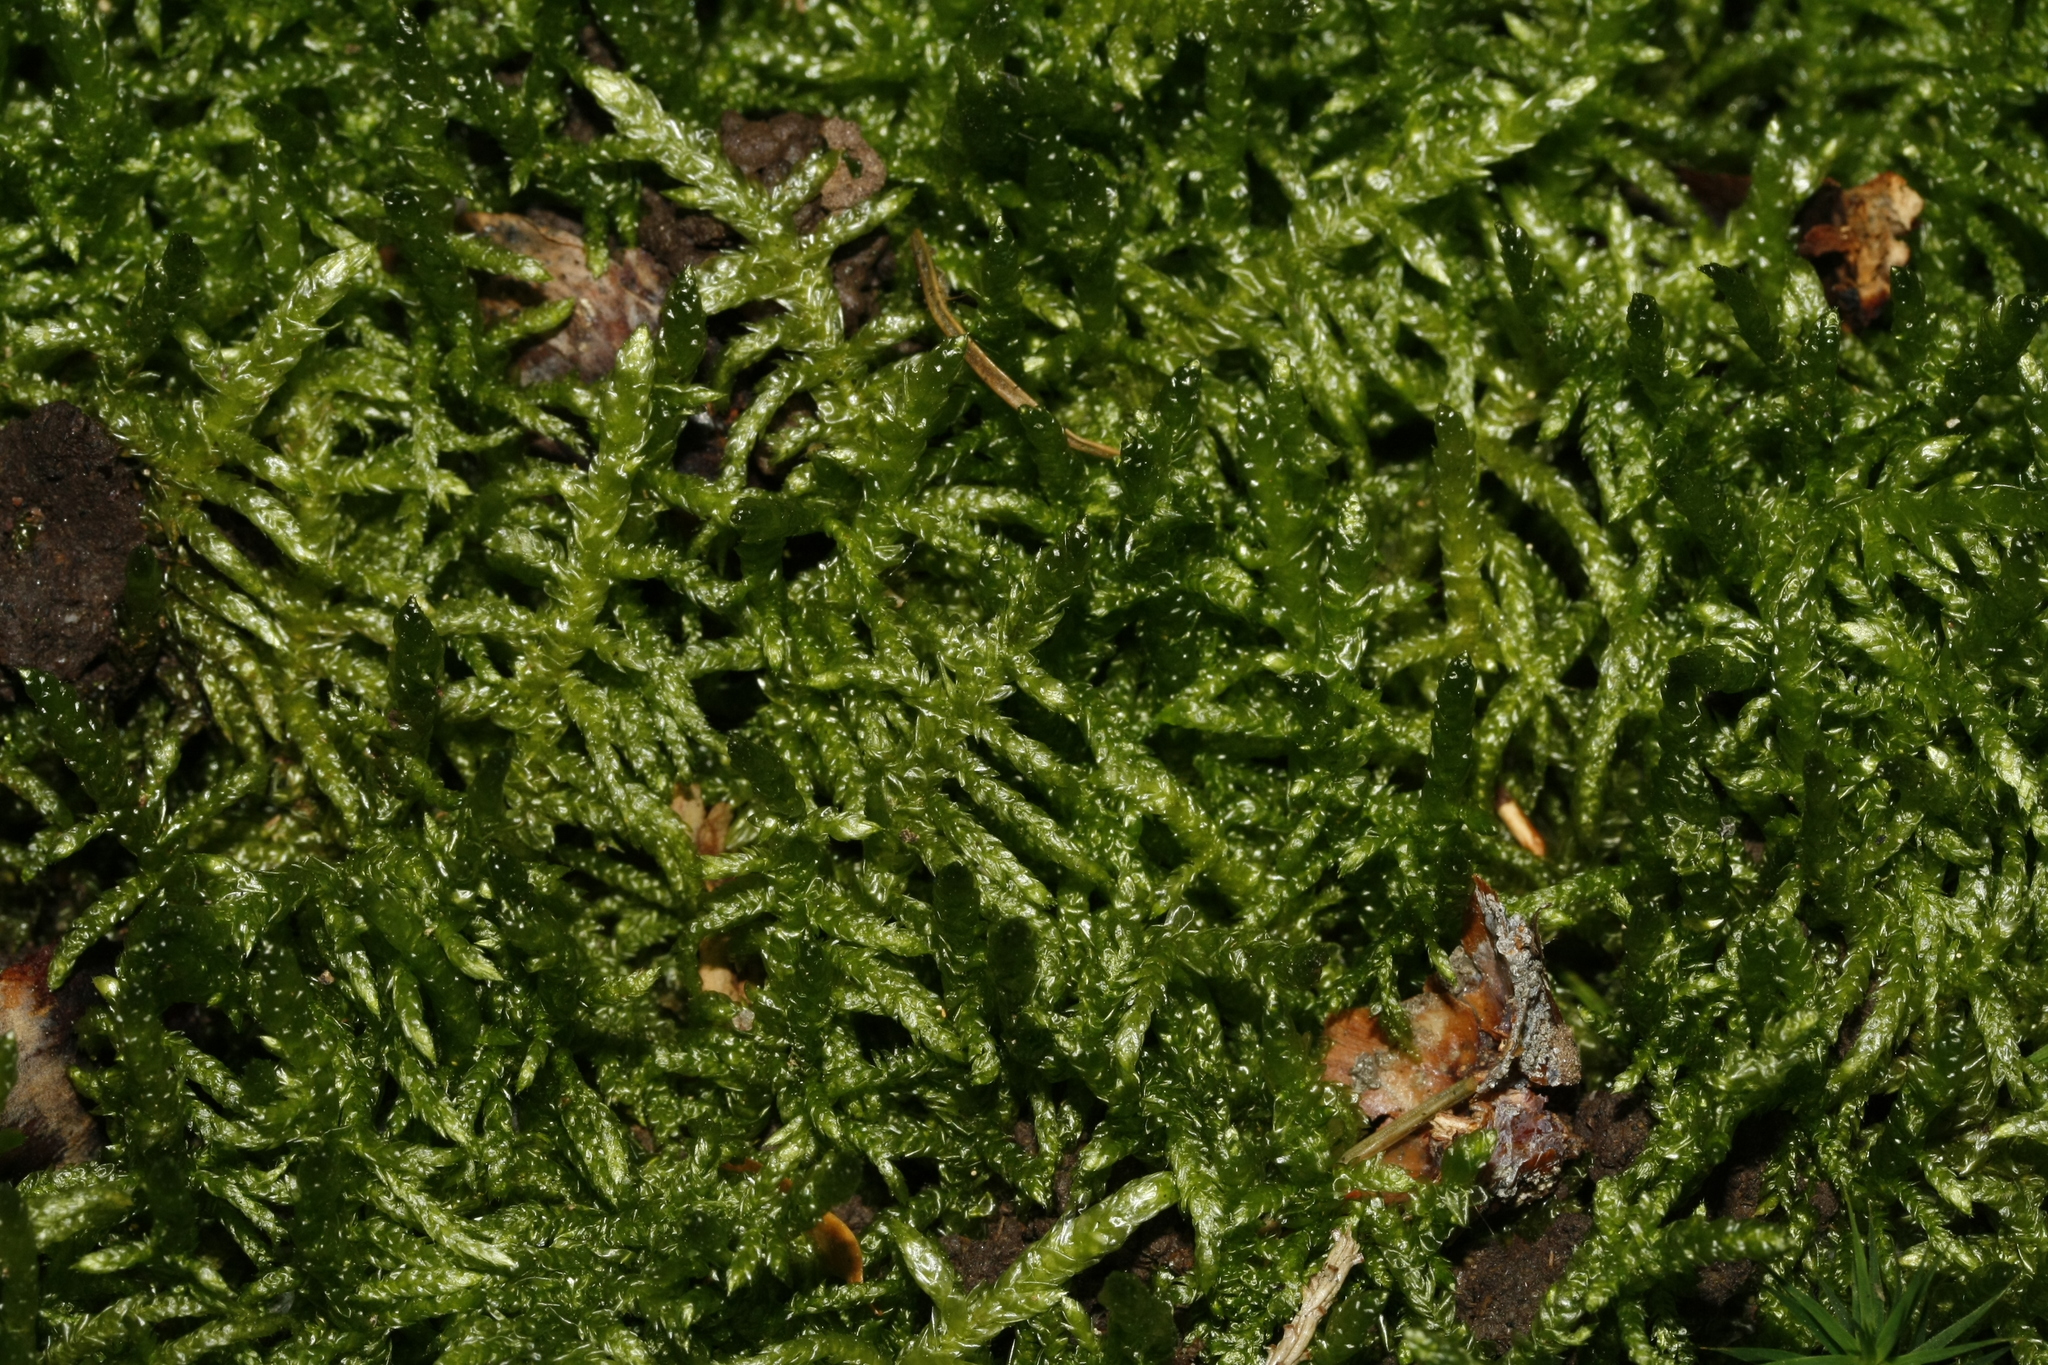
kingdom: Plantae
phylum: Bryophyta
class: Bryopsida
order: Hypnales
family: Brachytheciaceae
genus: Pseudoscleropodium
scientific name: Pseudoscleropodium purum
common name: Neat feather-moss
